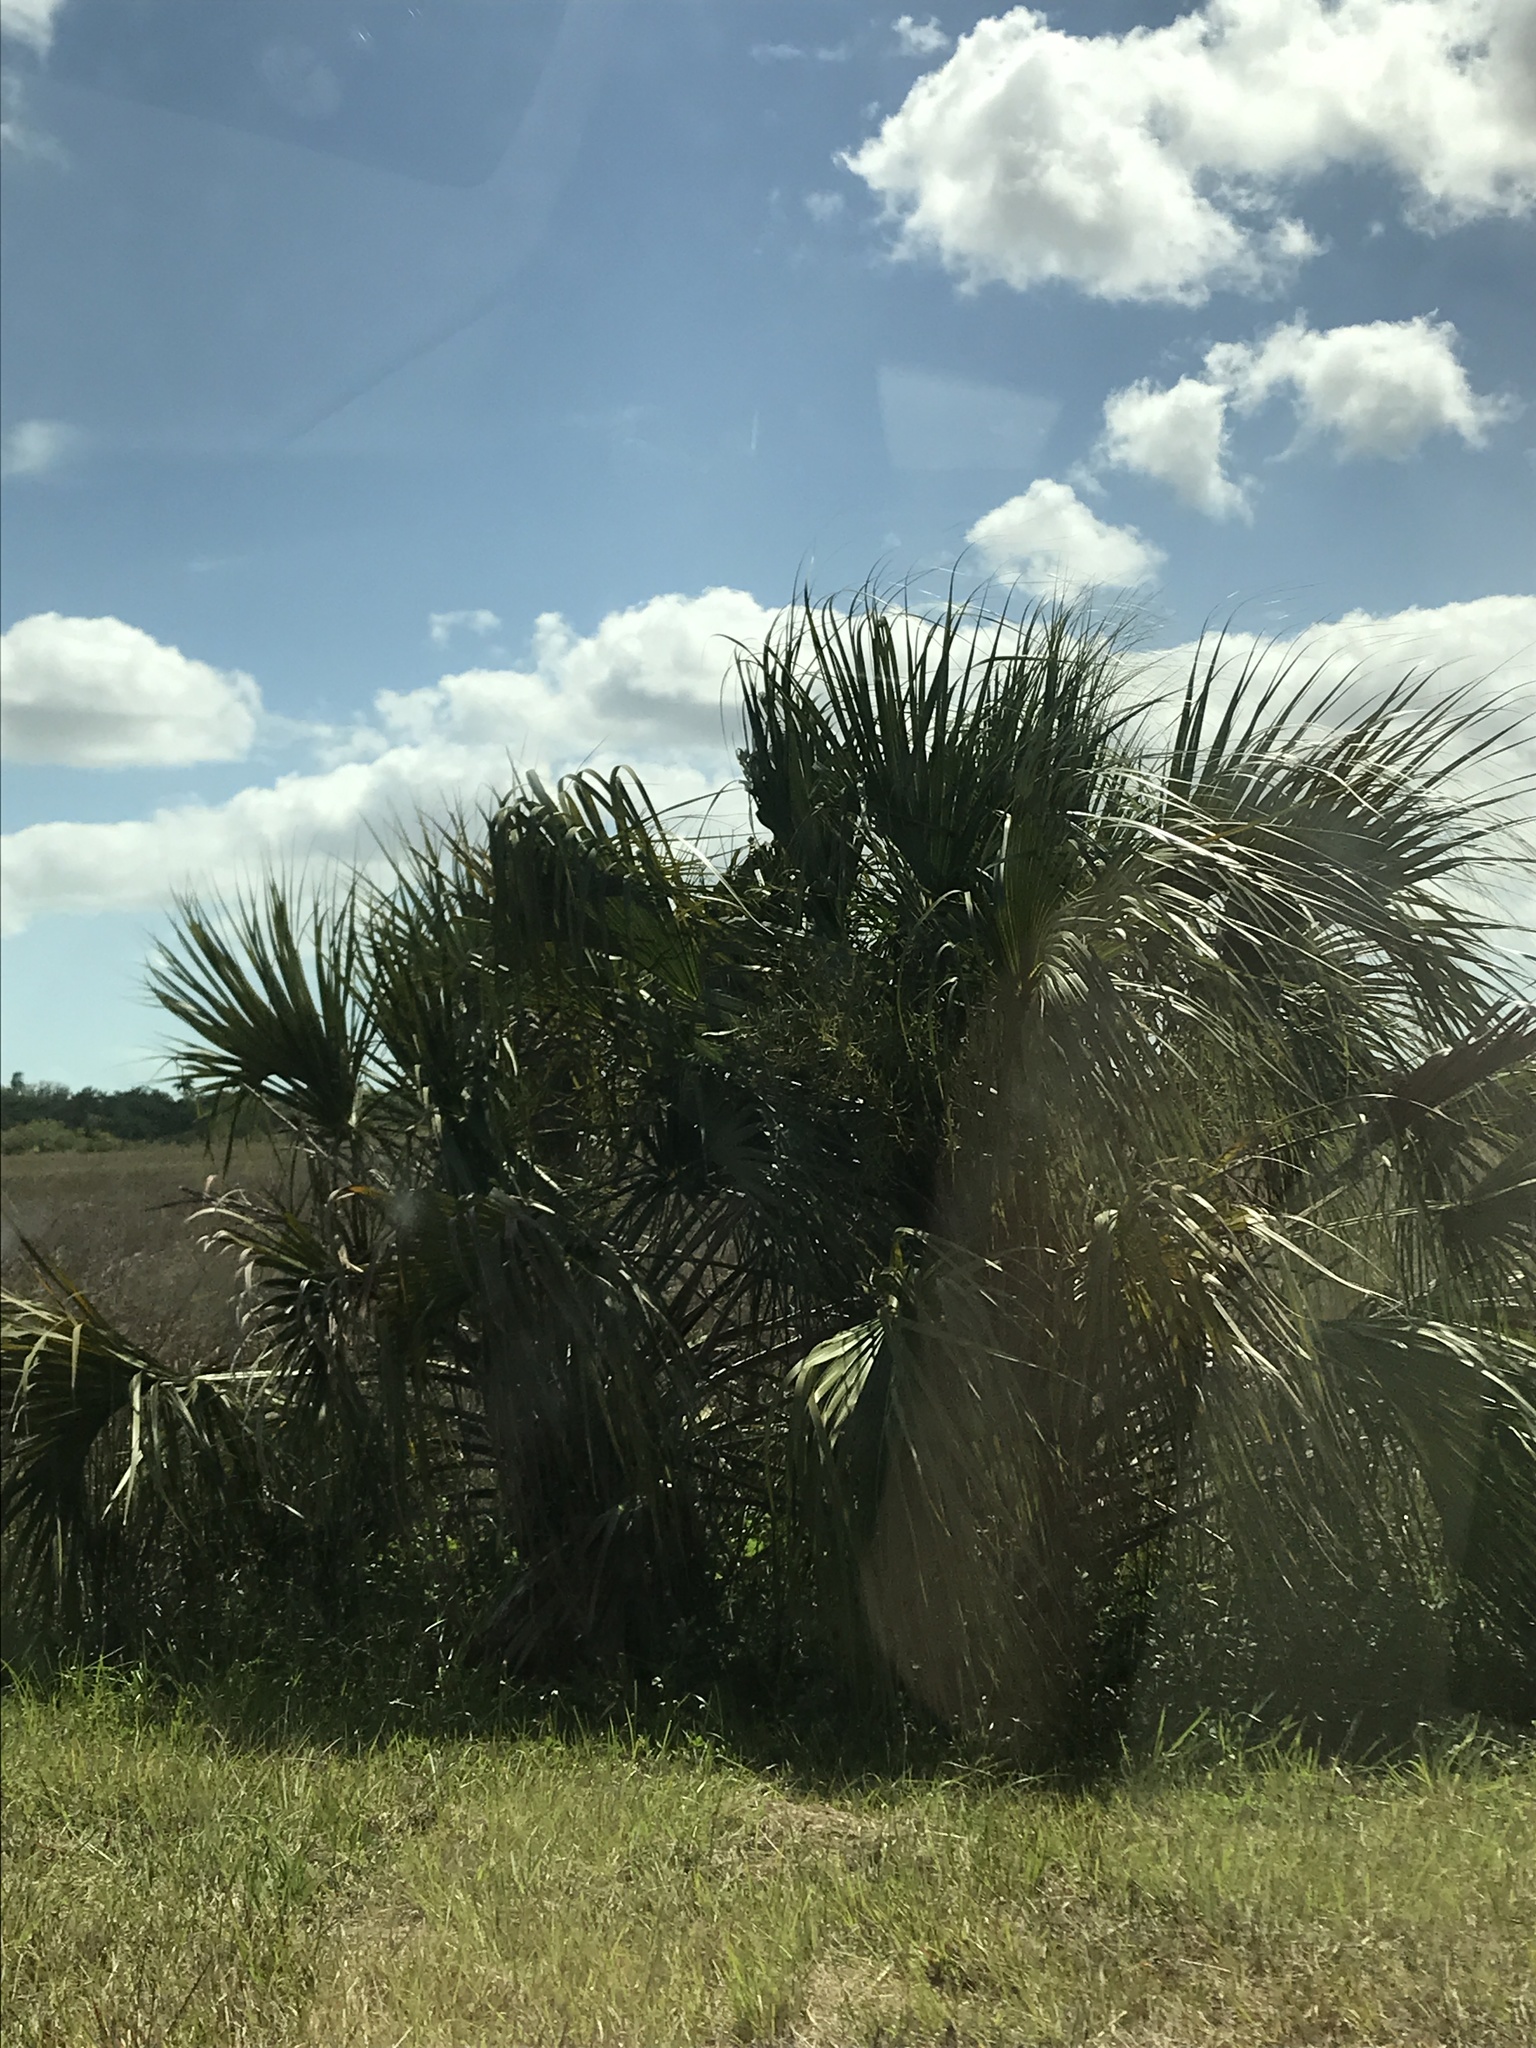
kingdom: Plantae
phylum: Tracheophyta
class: Liliopsida
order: Arecales
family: Arecaceae
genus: Sabal
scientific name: Sabal palmetto
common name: Blue palmetto
